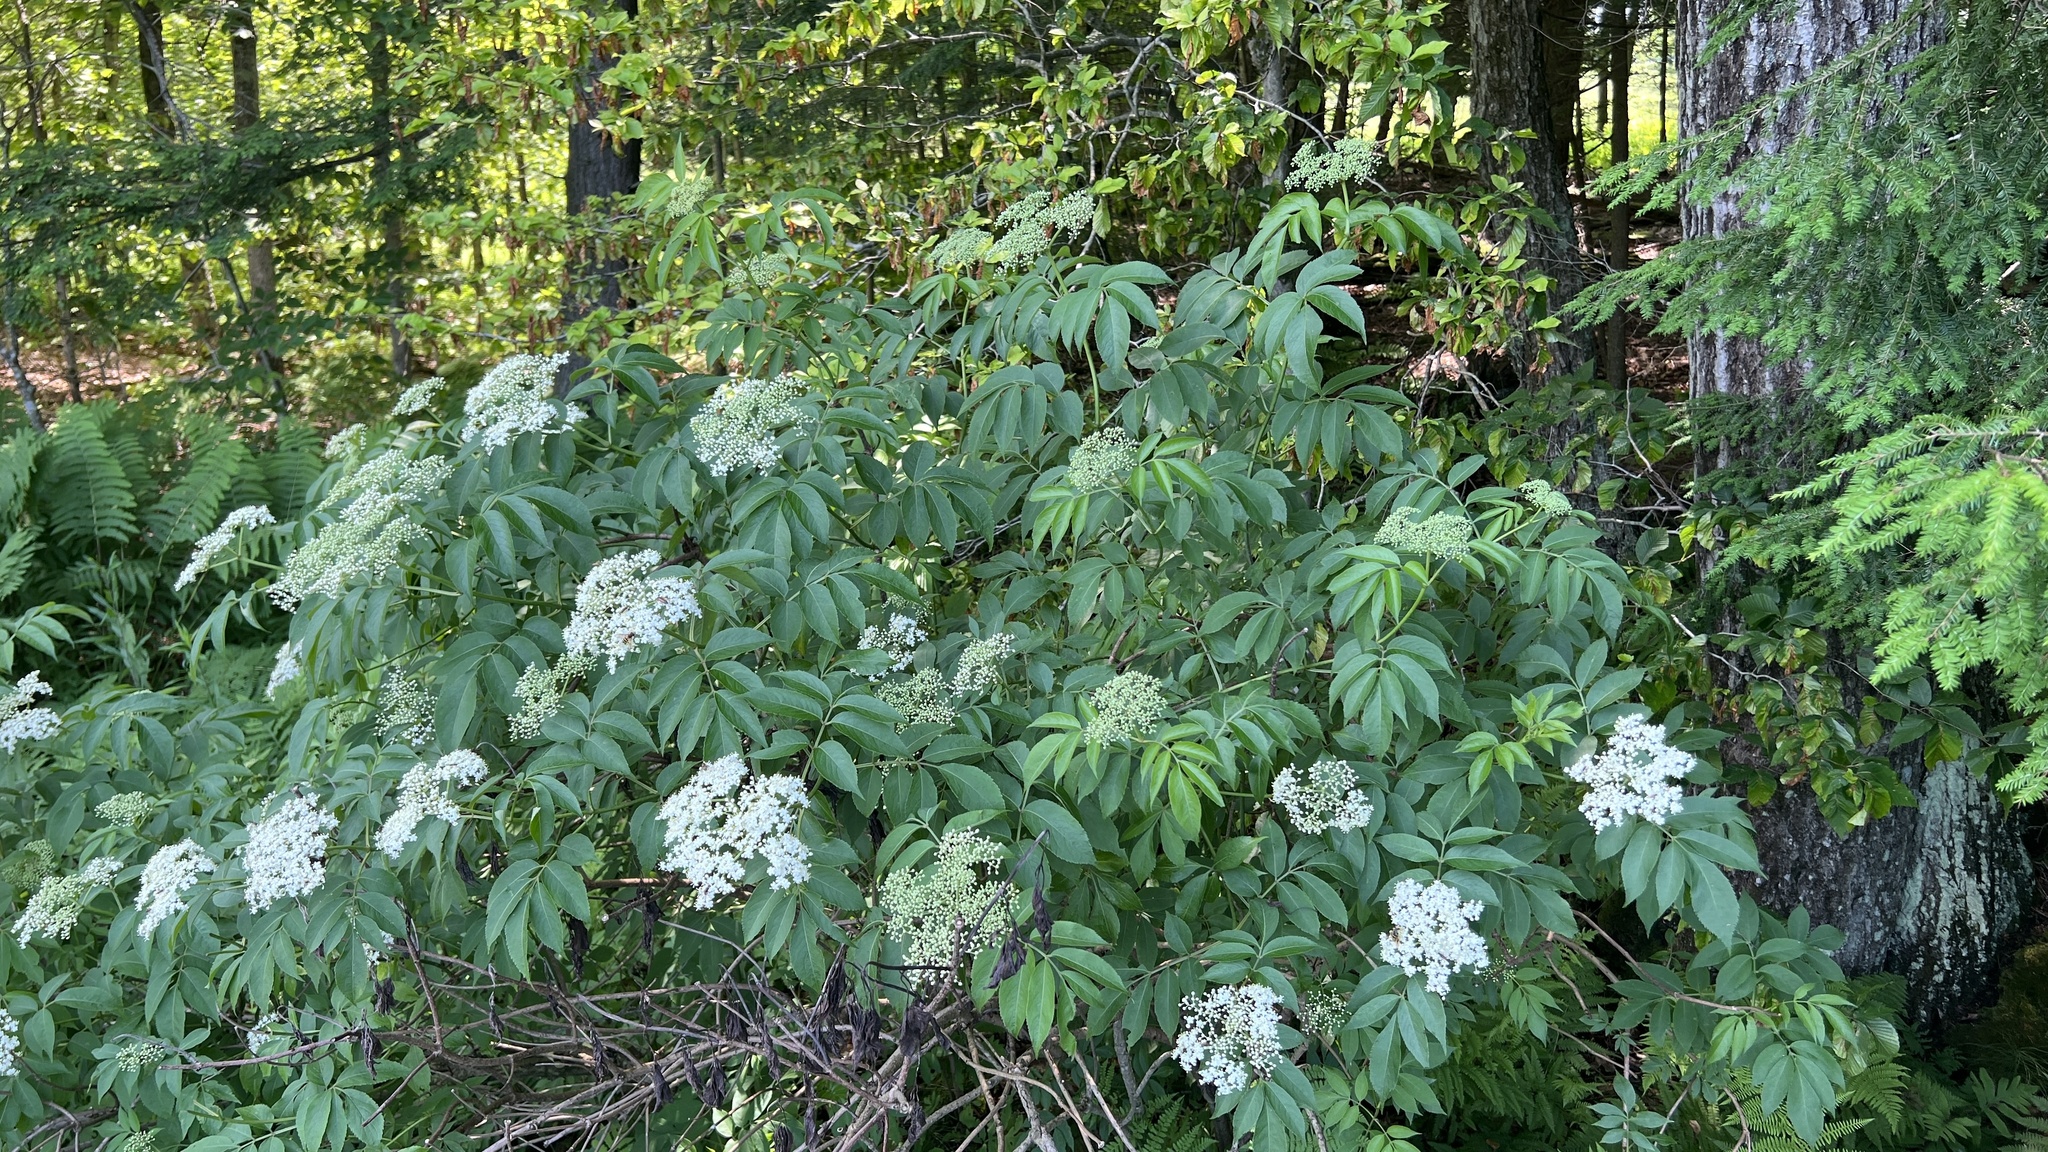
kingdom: Plantae
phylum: Tracheophyta
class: Magnoliopsida
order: Dipsacales
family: Viburnaceae
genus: Sambucus
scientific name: Sambucus canadensis
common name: American elder
